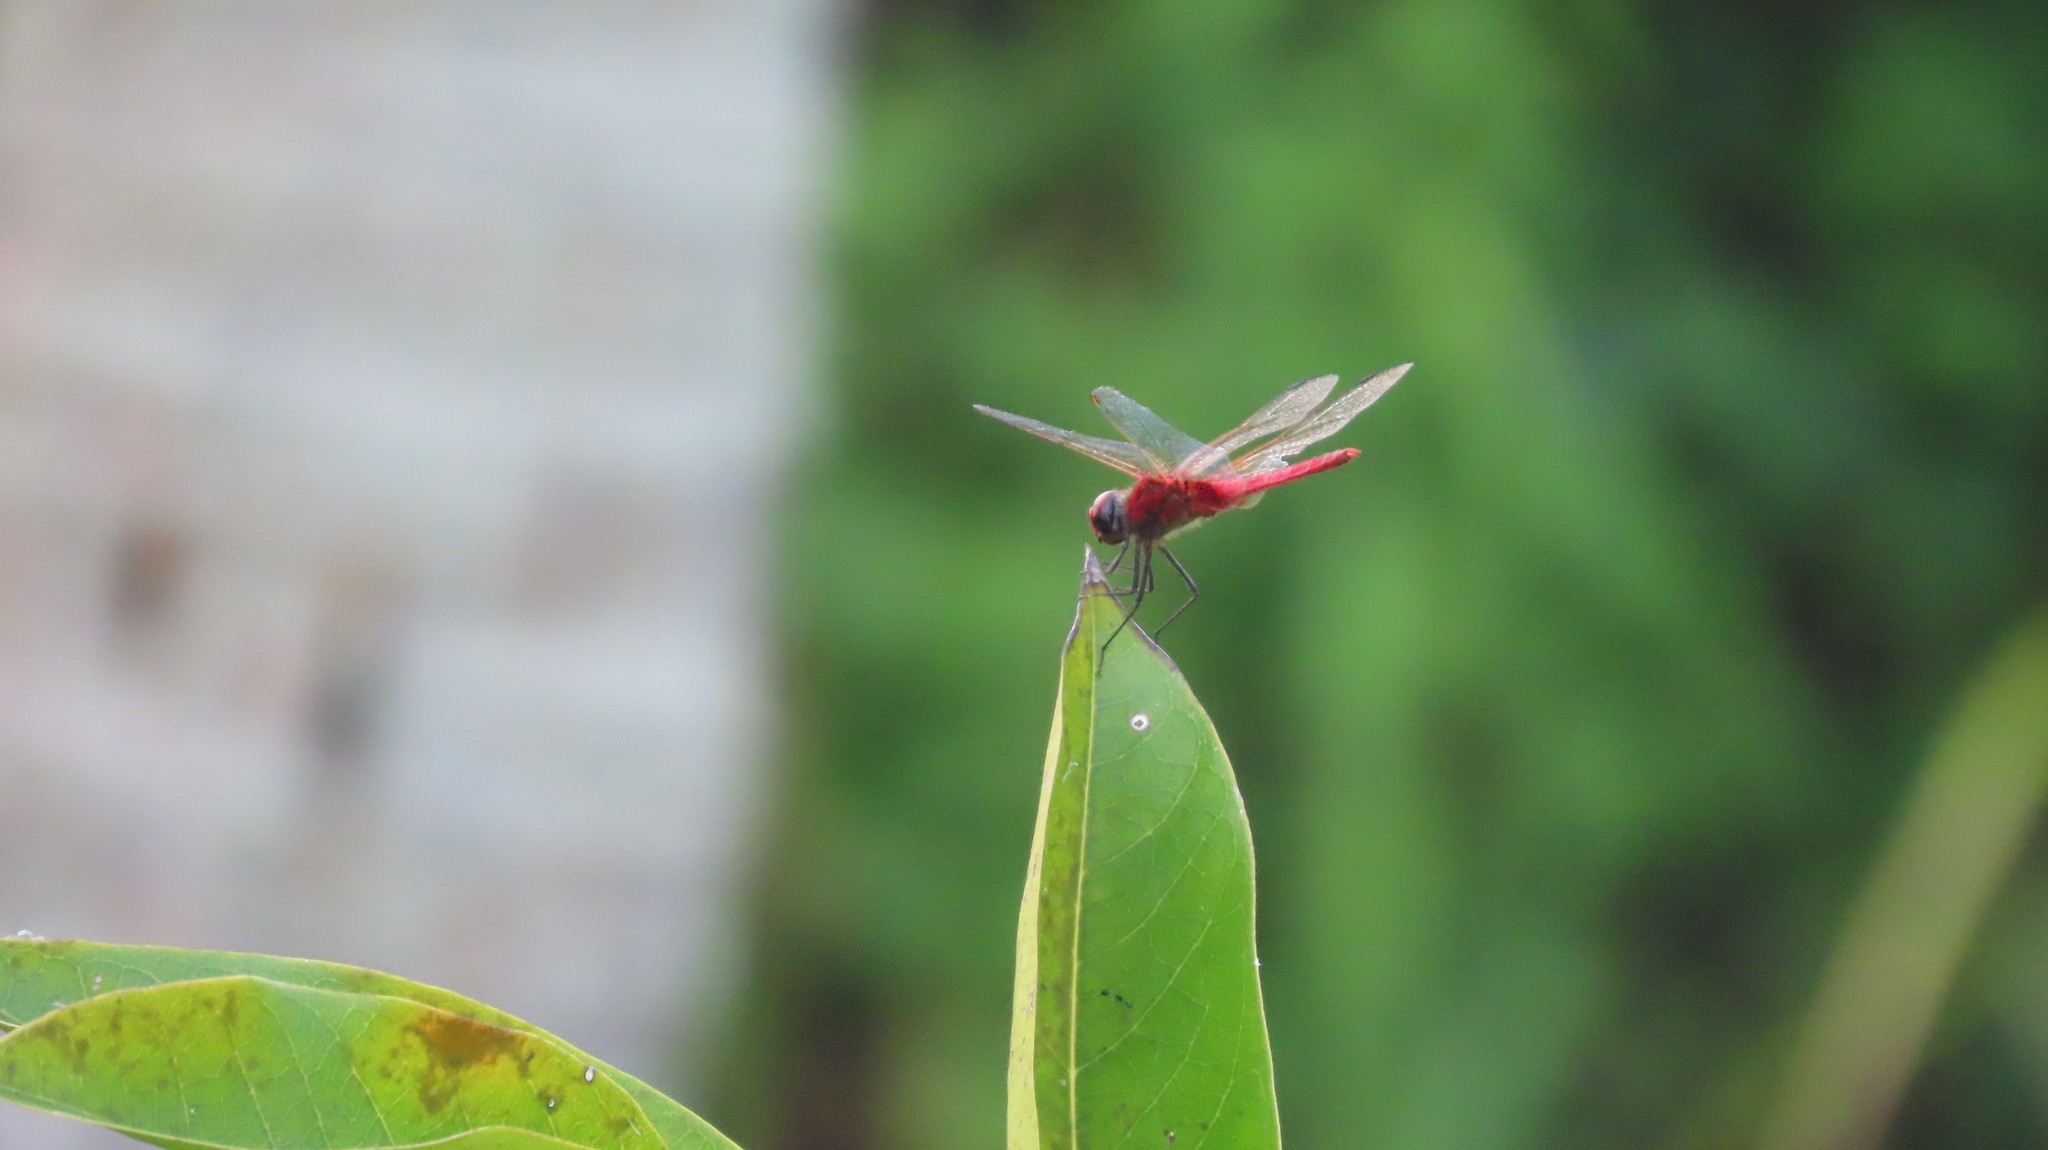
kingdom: Animalia
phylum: Arthropoda
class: Insecta
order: Odonata
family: Libellulidae
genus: Urothemis
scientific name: Urothemis signata
